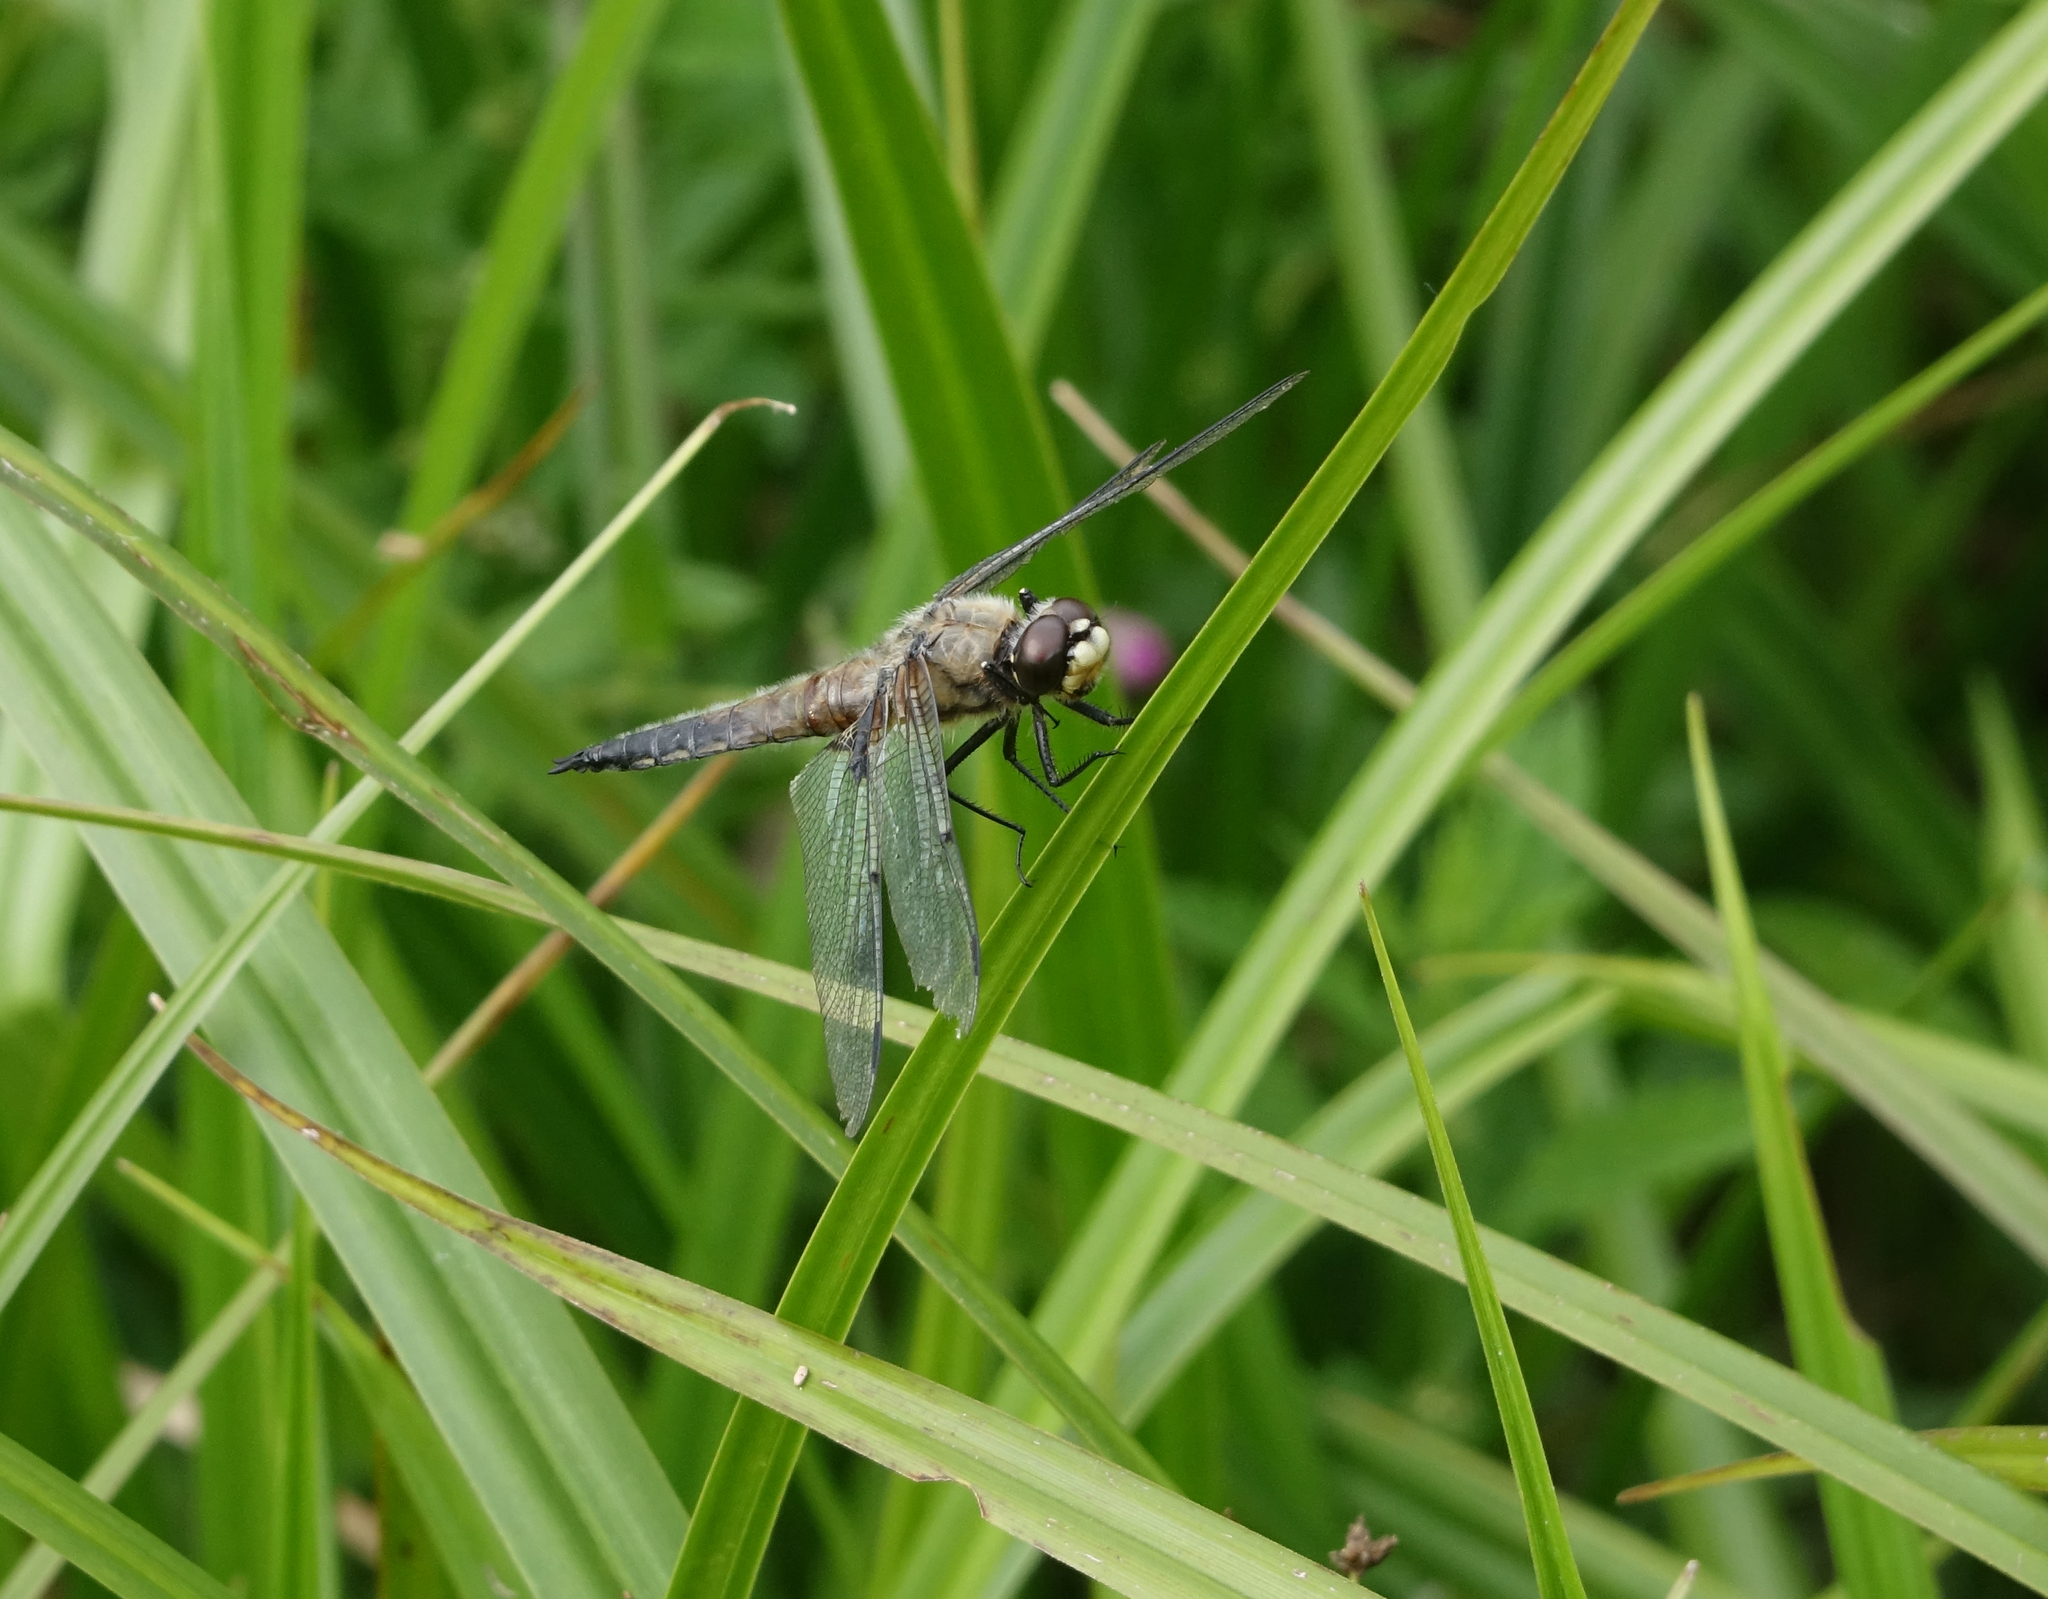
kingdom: Animalia
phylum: Arthropoda
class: Insecta
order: Odonata
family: Libellulidae
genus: Libellula
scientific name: Libellula quadrimaculata
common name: Four-spotted chaser
